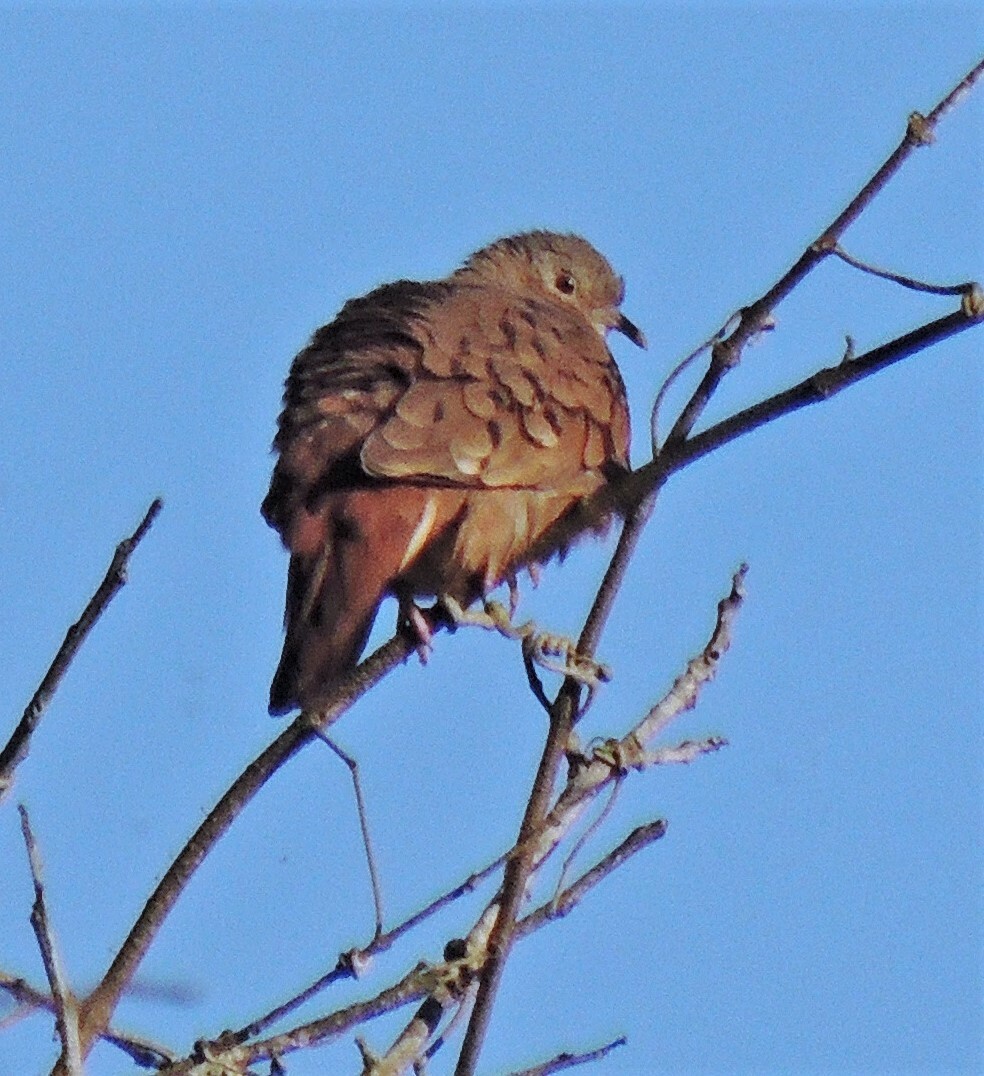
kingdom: Animalia
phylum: Chordata
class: Aves
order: Columbiformes
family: Columbidae
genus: Columbina
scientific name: Columbina talpacoti
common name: Ruddy ground dove
